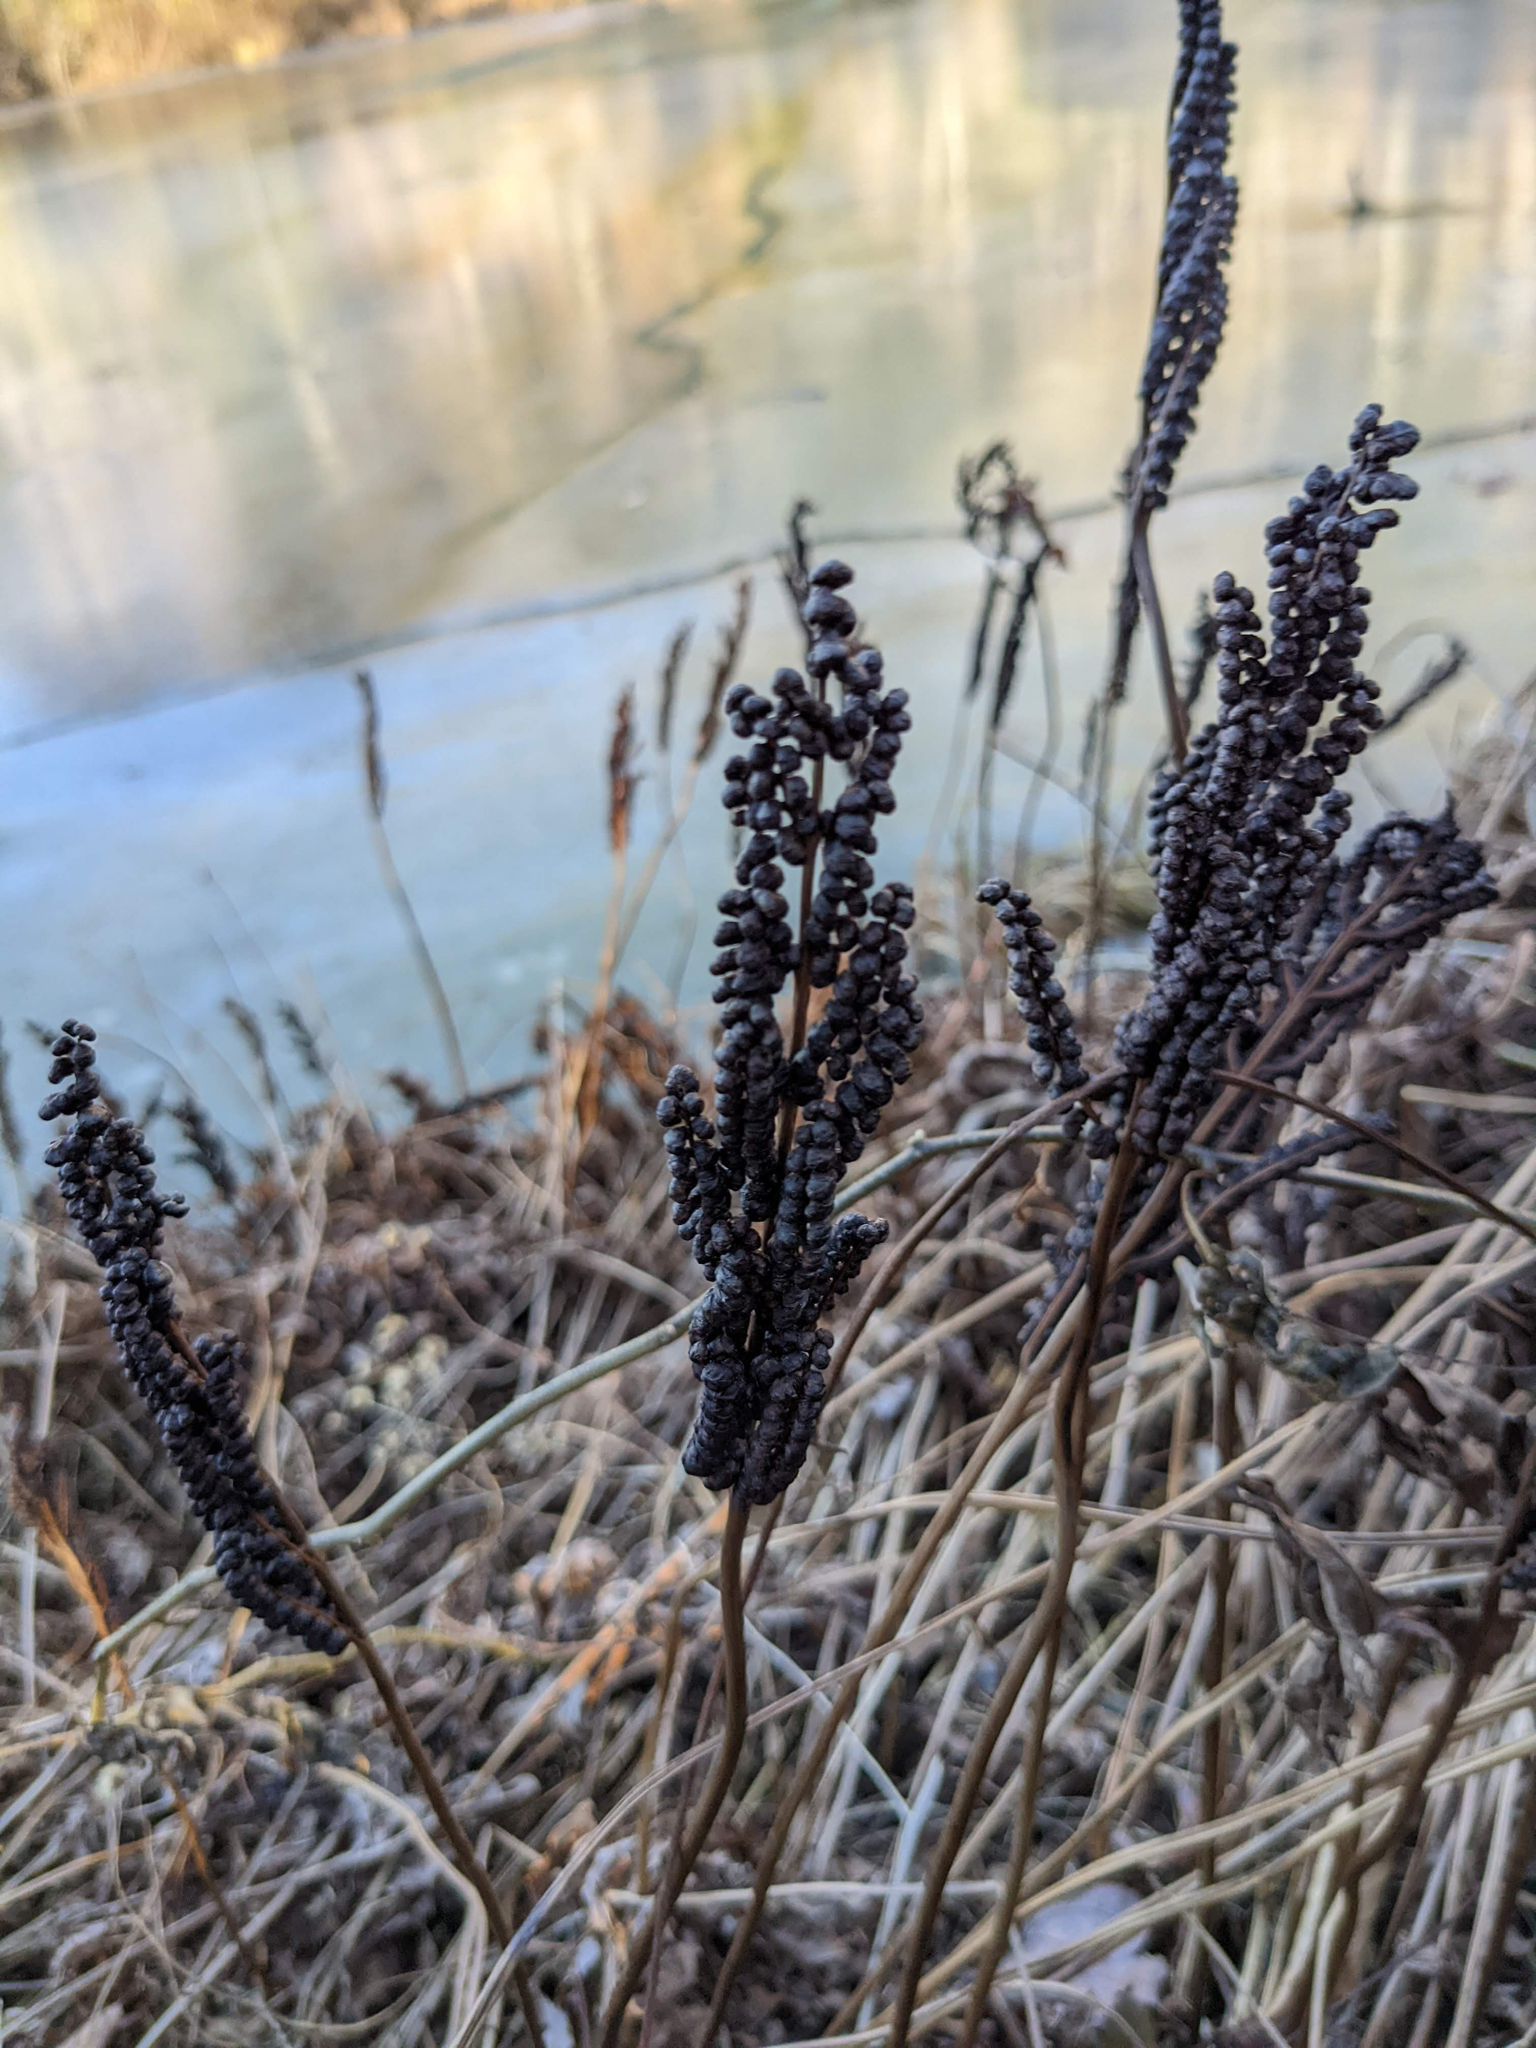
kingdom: Plantae
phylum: Tracheophyta
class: Polypodiopsida
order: Polypodiales
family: Onocleaceae
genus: Onoclea
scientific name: Onoclea sensibilis
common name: Sensitive fern
